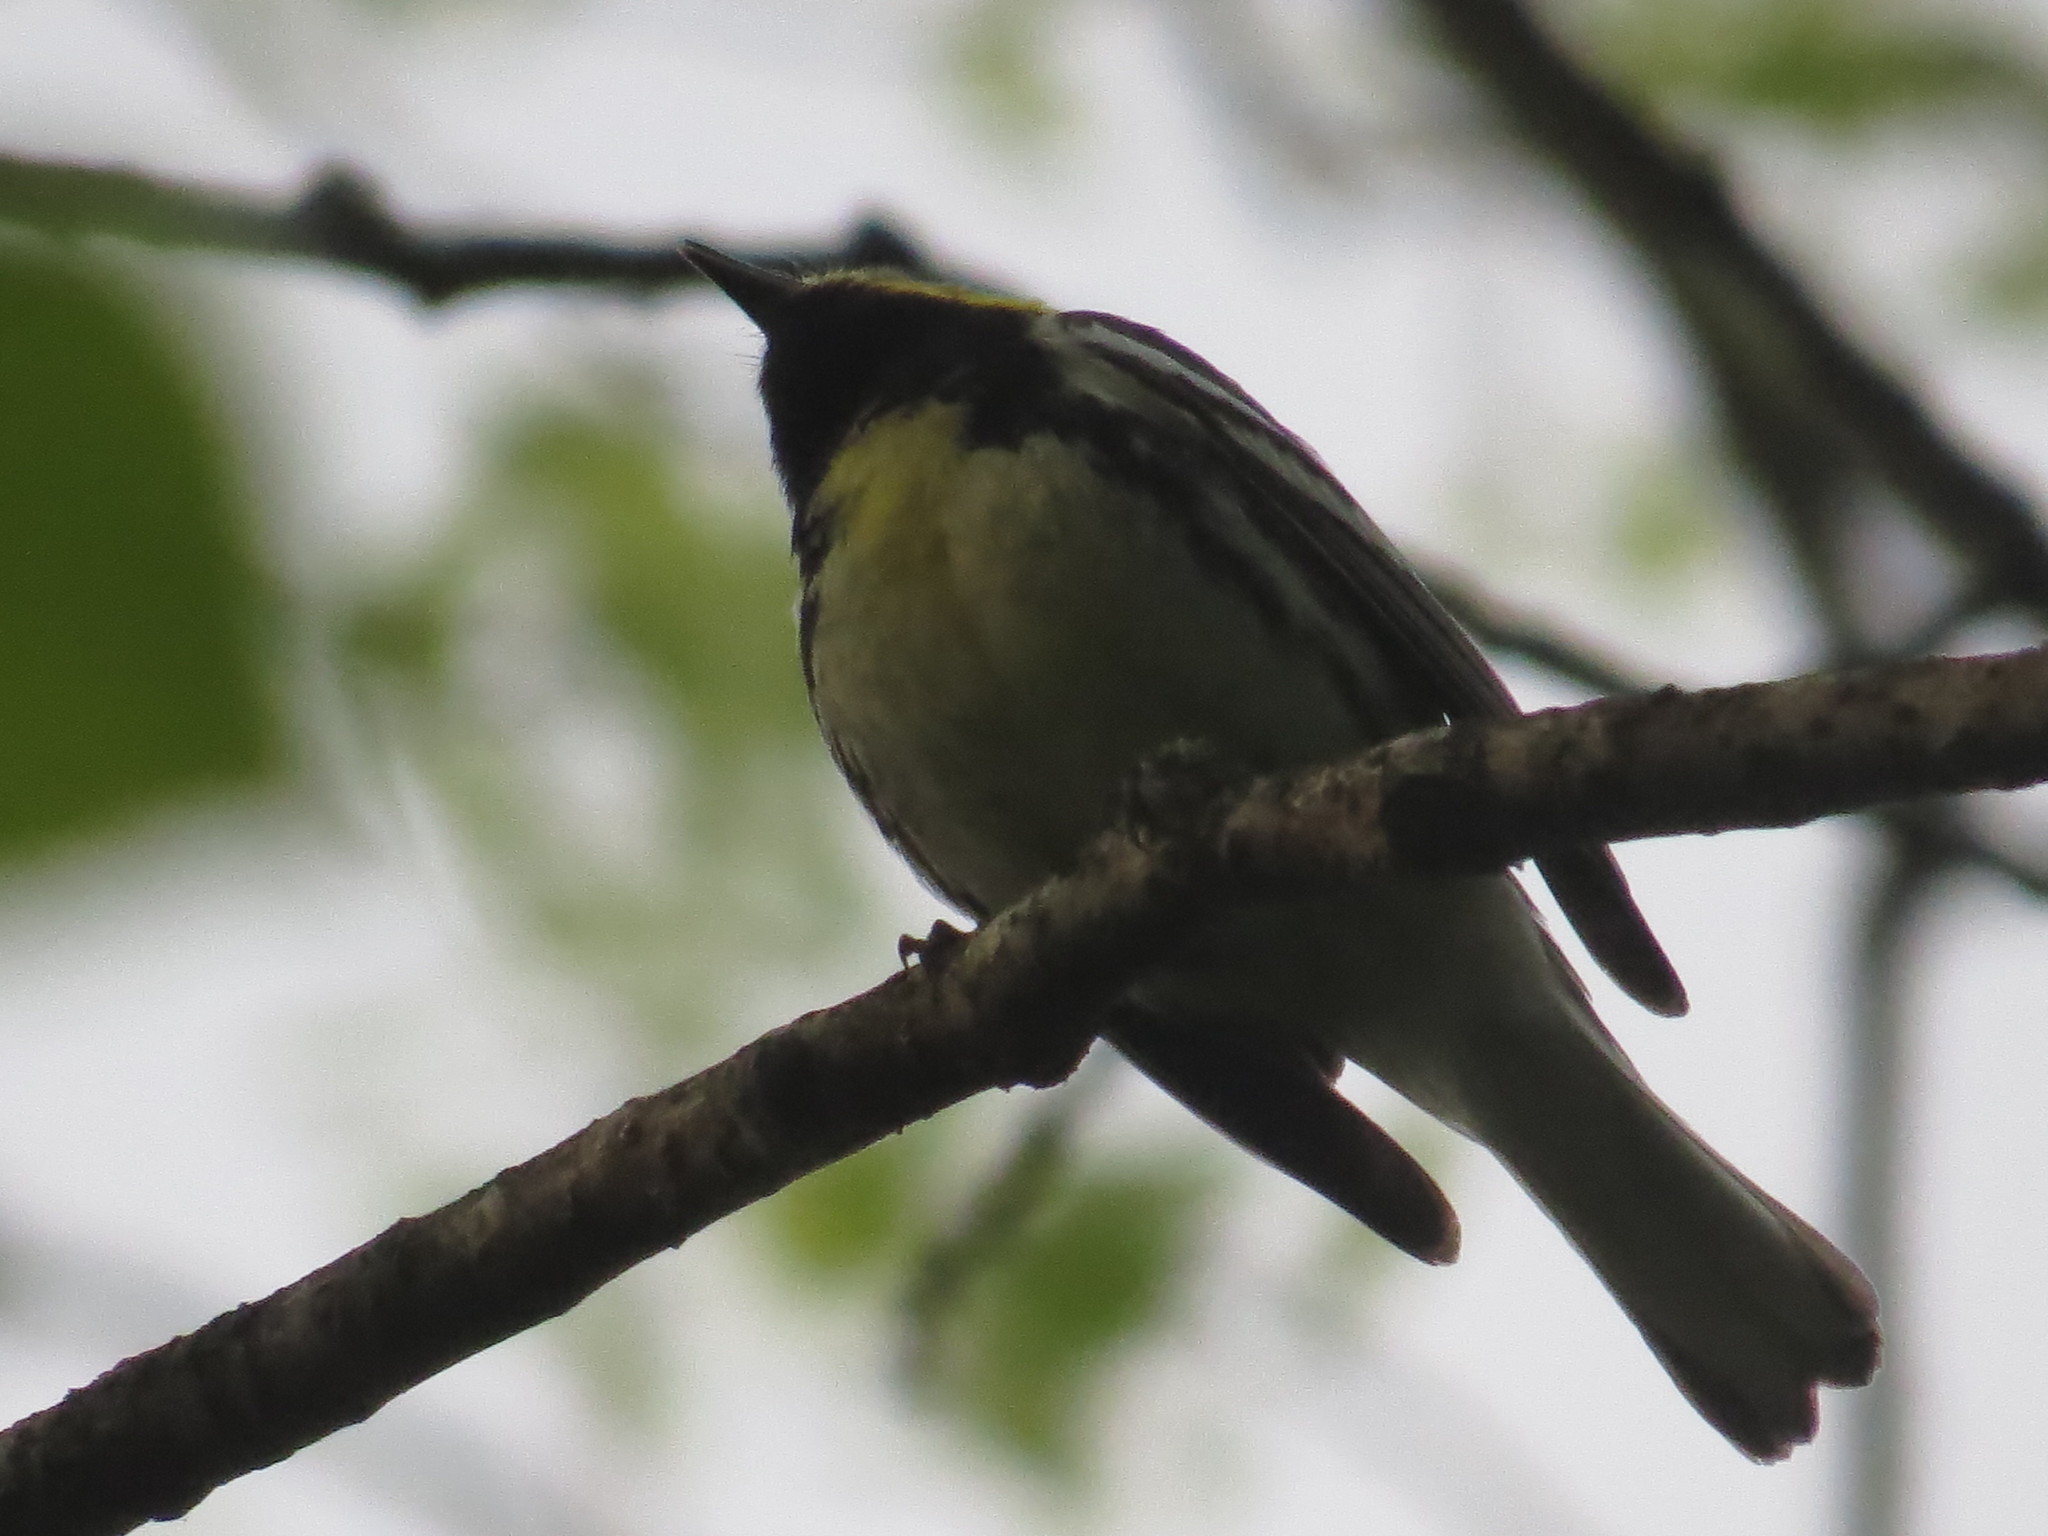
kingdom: Animalia
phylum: Chordata
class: Aves
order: Passeriformes
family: Parulidae
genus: Setophaga
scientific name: Setophaga virens
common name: Black-throated green warbler
